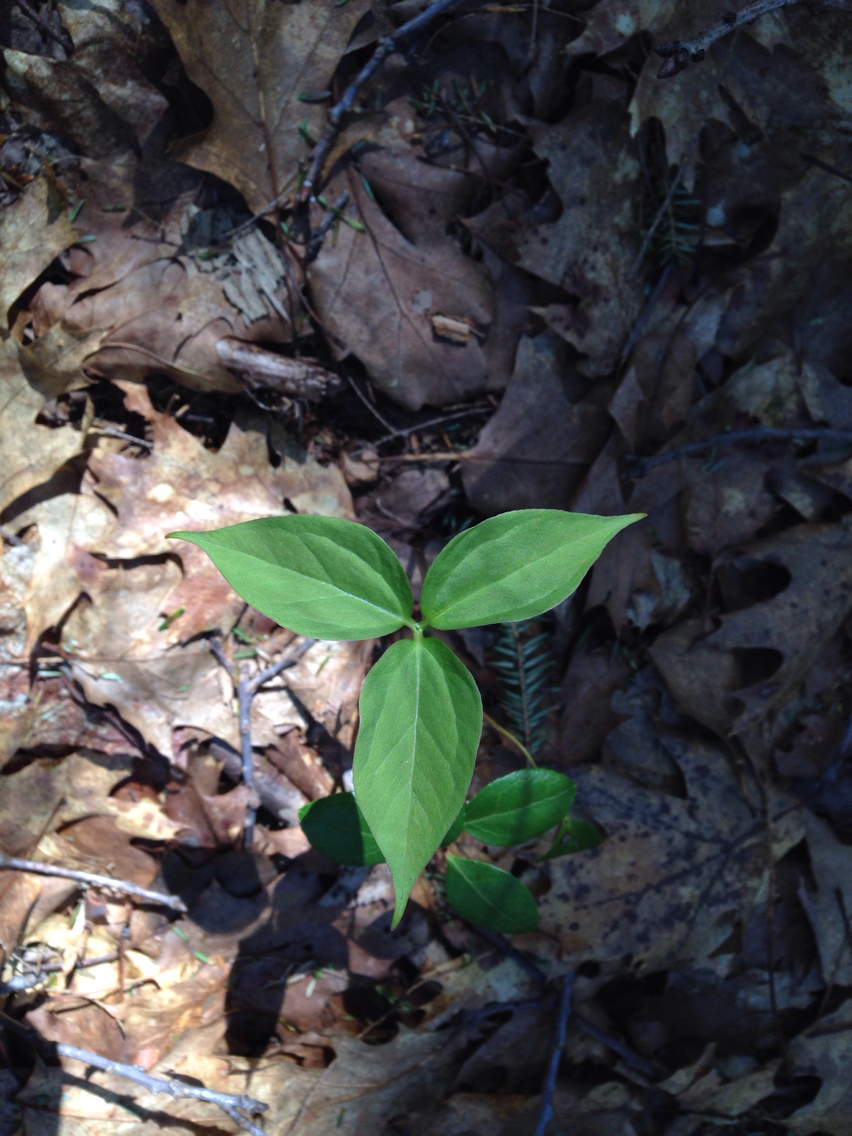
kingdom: Plantae
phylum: Tracheophyta
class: Liliopsida
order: Liliales
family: Melanthiaceae
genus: Trillium
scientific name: Trillium undulatum
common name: Paint trillium
